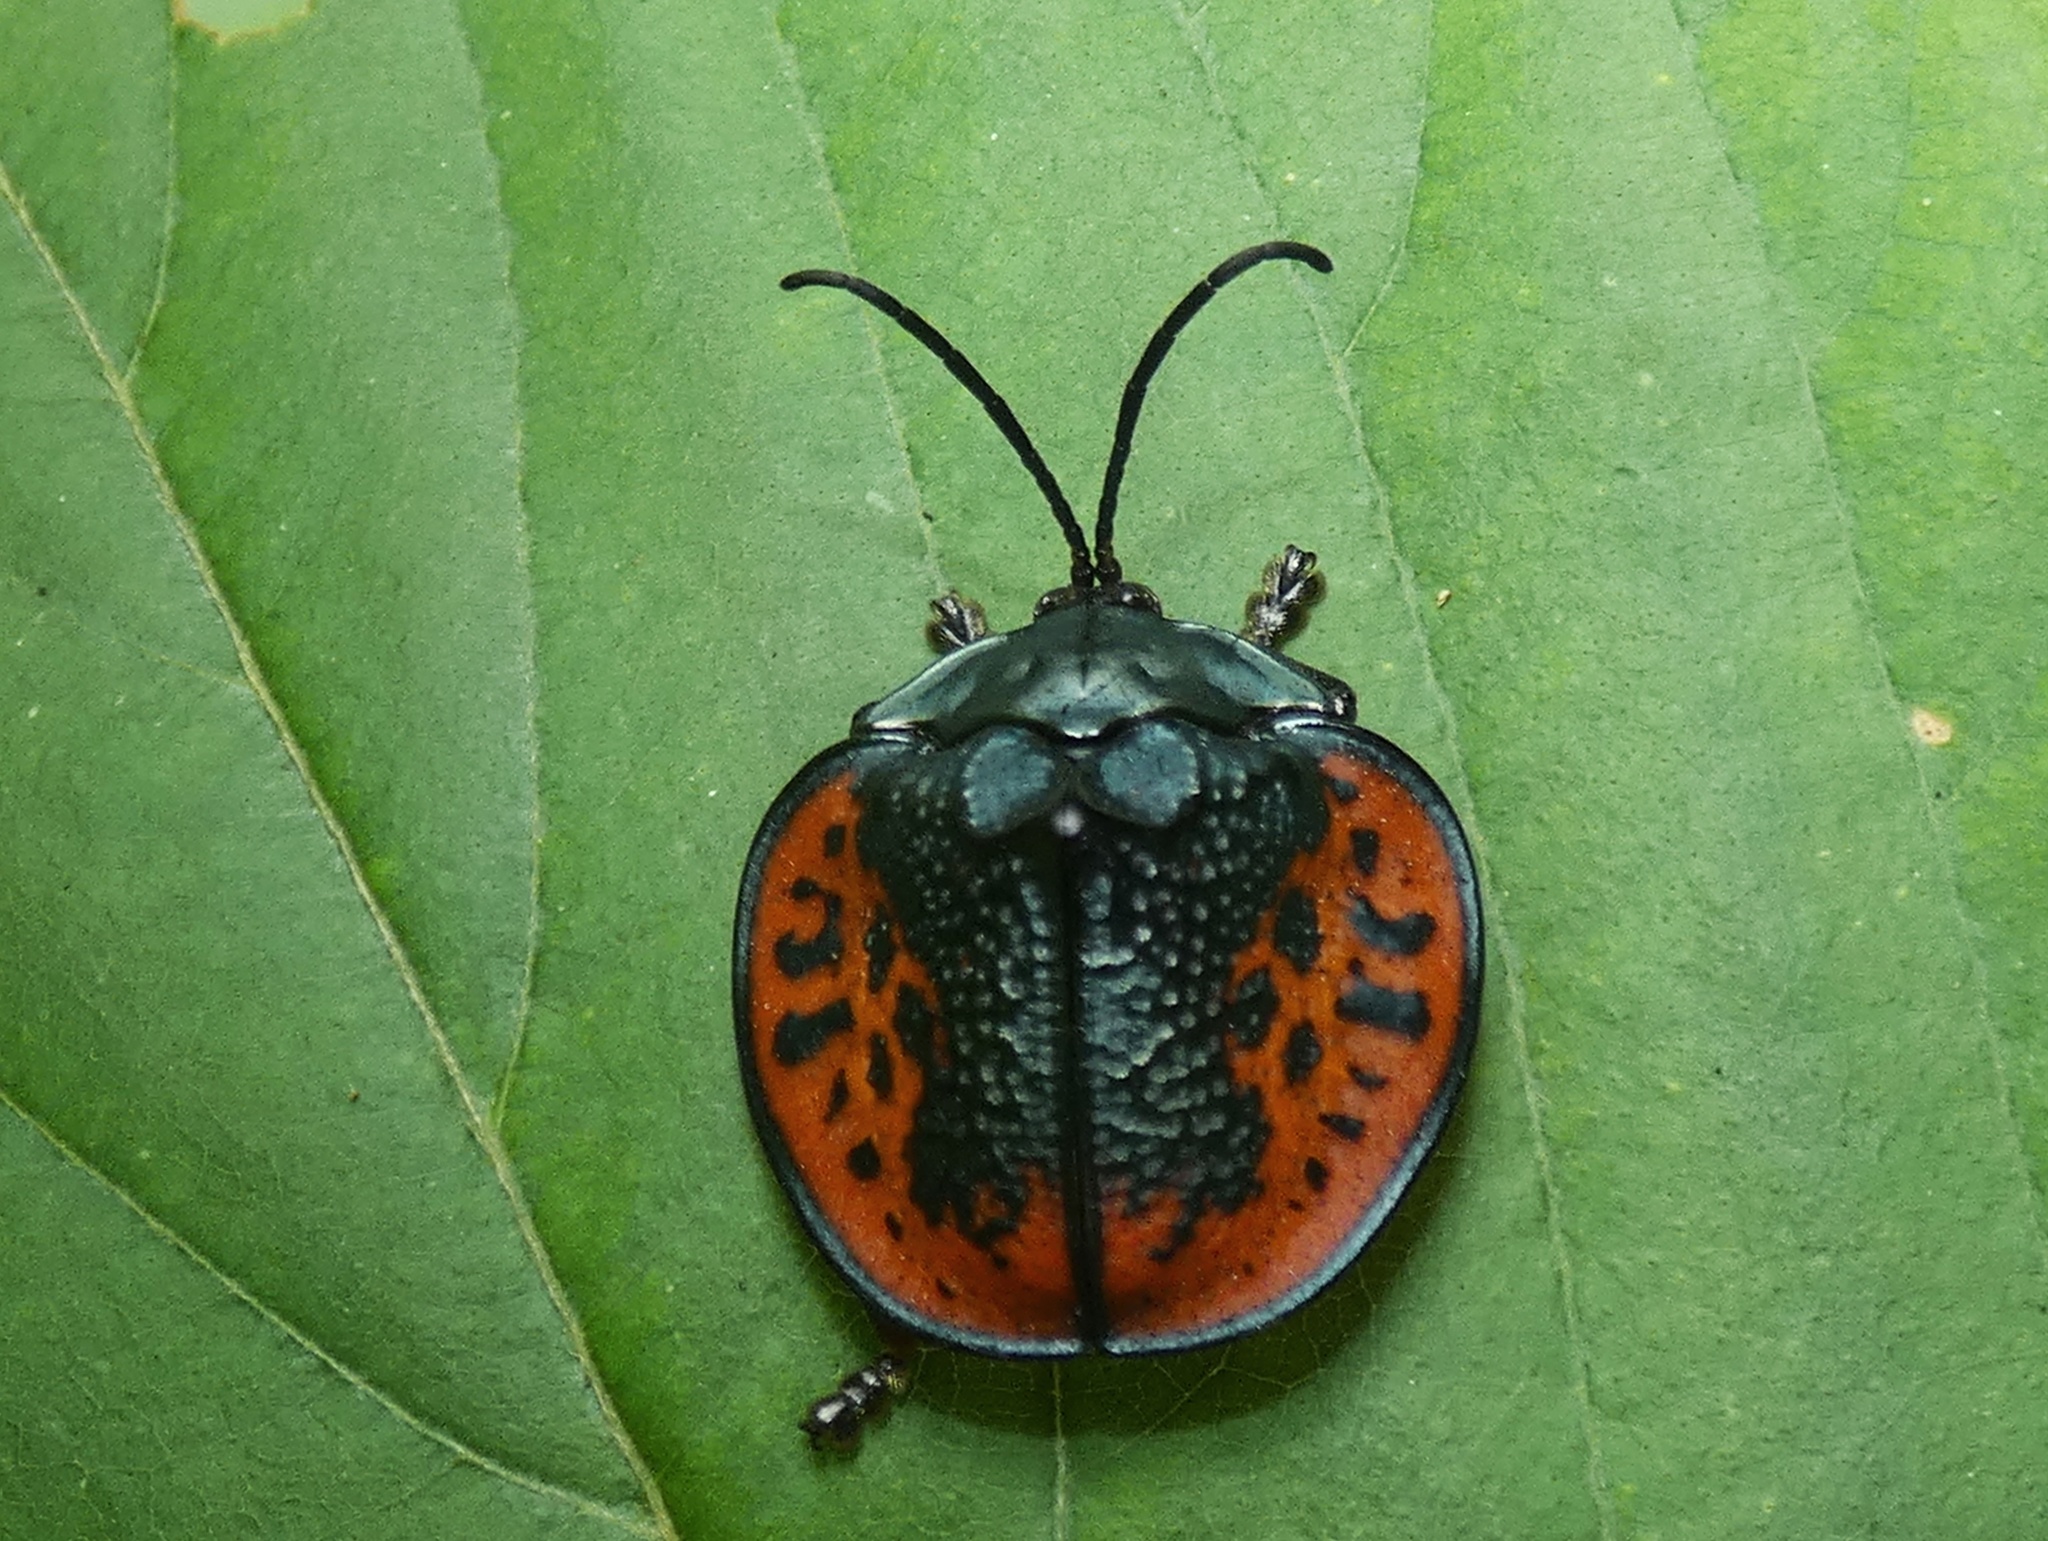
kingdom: Animalia
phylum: Arthropoda
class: Insecta
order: Coleoptera
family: Chrysomelidae
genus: Discomorpha
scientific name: Discomorpha salvini
